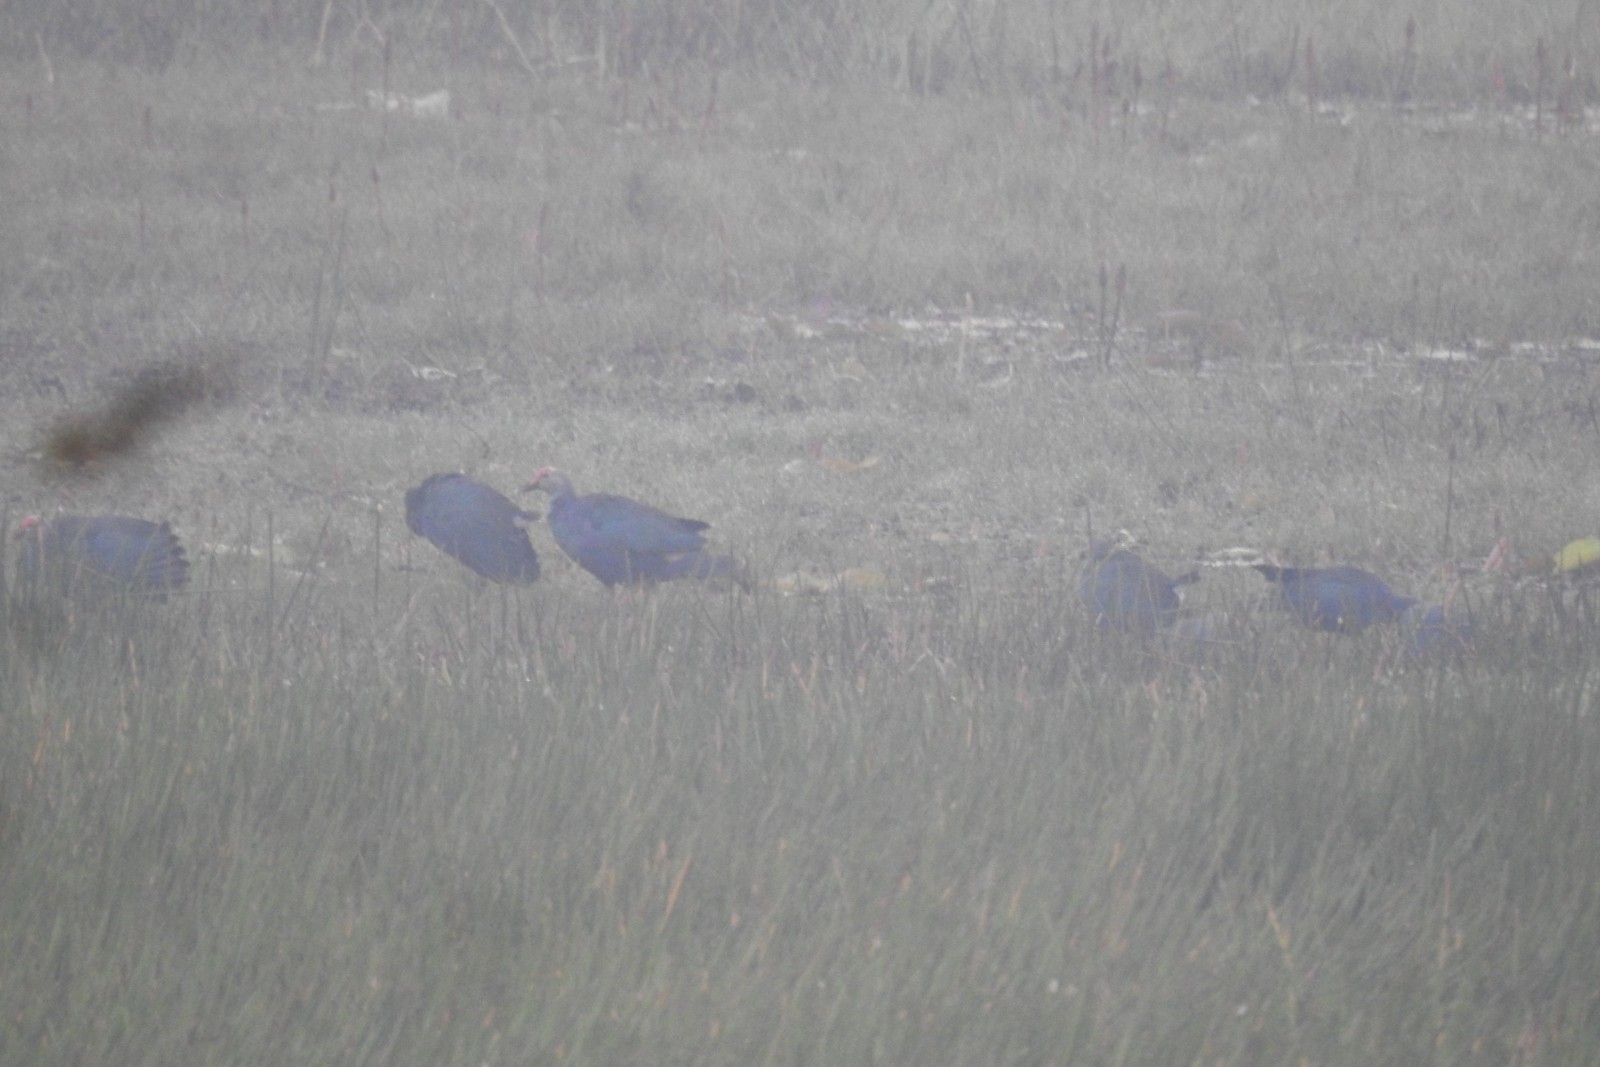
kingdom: Animalia
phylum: Chordata
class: Aves
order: Gruiformes
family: Rallidae
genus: Porphyrio
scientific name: Porphyrio porphyrio
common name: Purple swamphen
